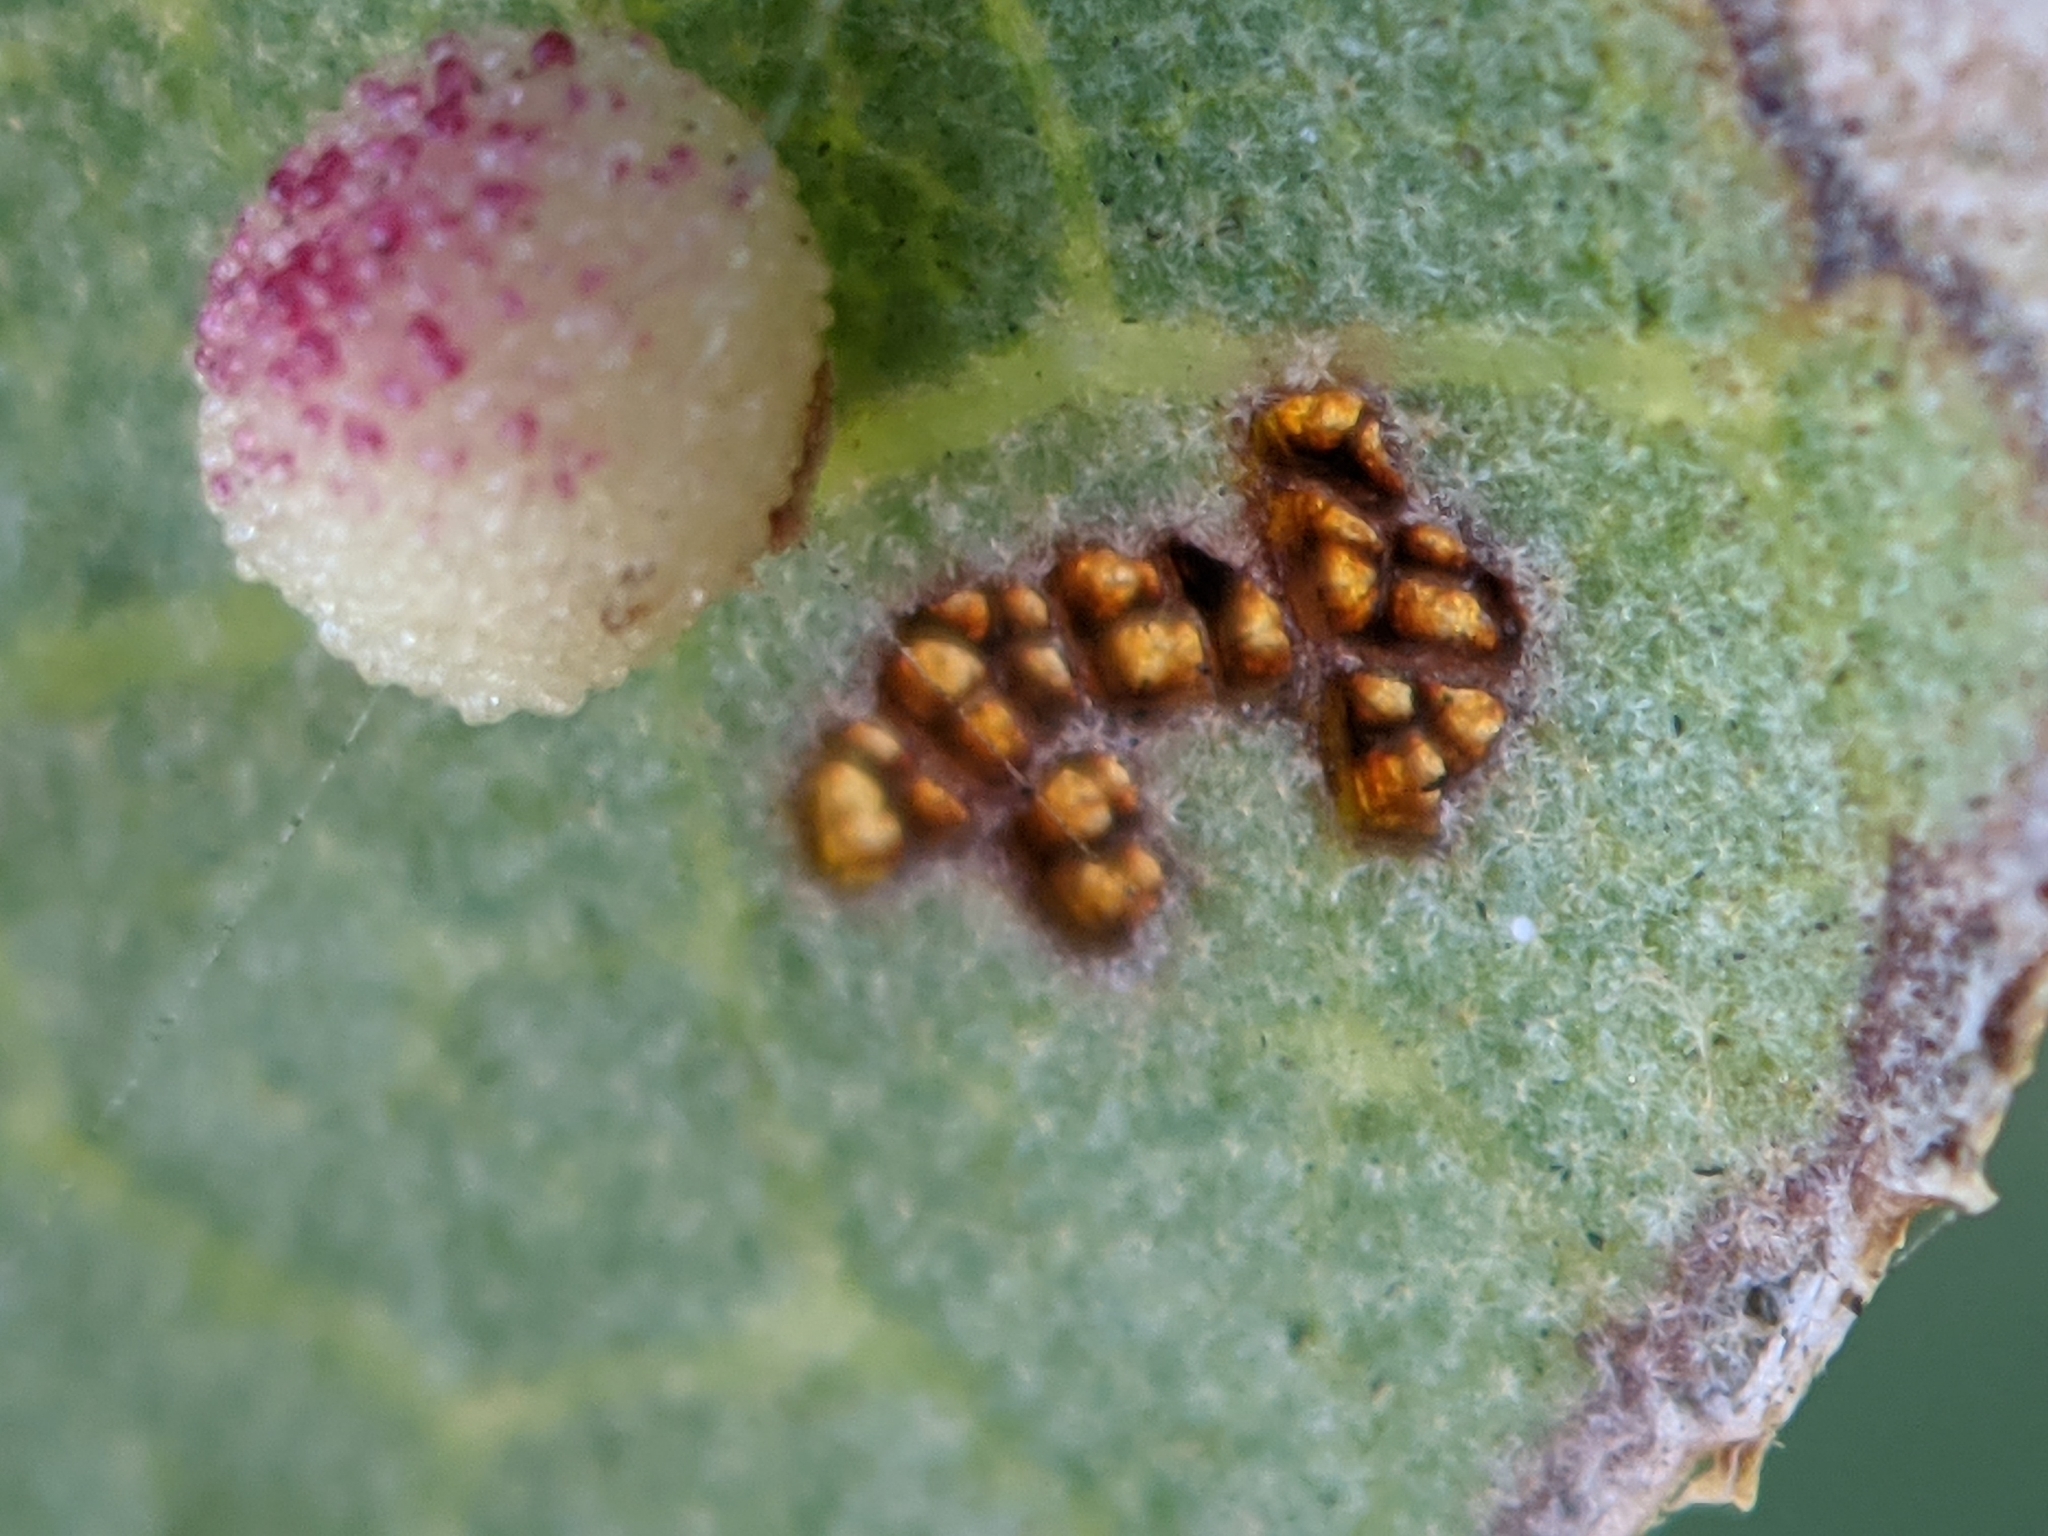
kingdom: Animalia
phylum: Arthropoda
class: Insecta
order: Hymenoptera
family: Cynipidae
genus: Neuroterus
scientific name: Neuroterus saltarius
